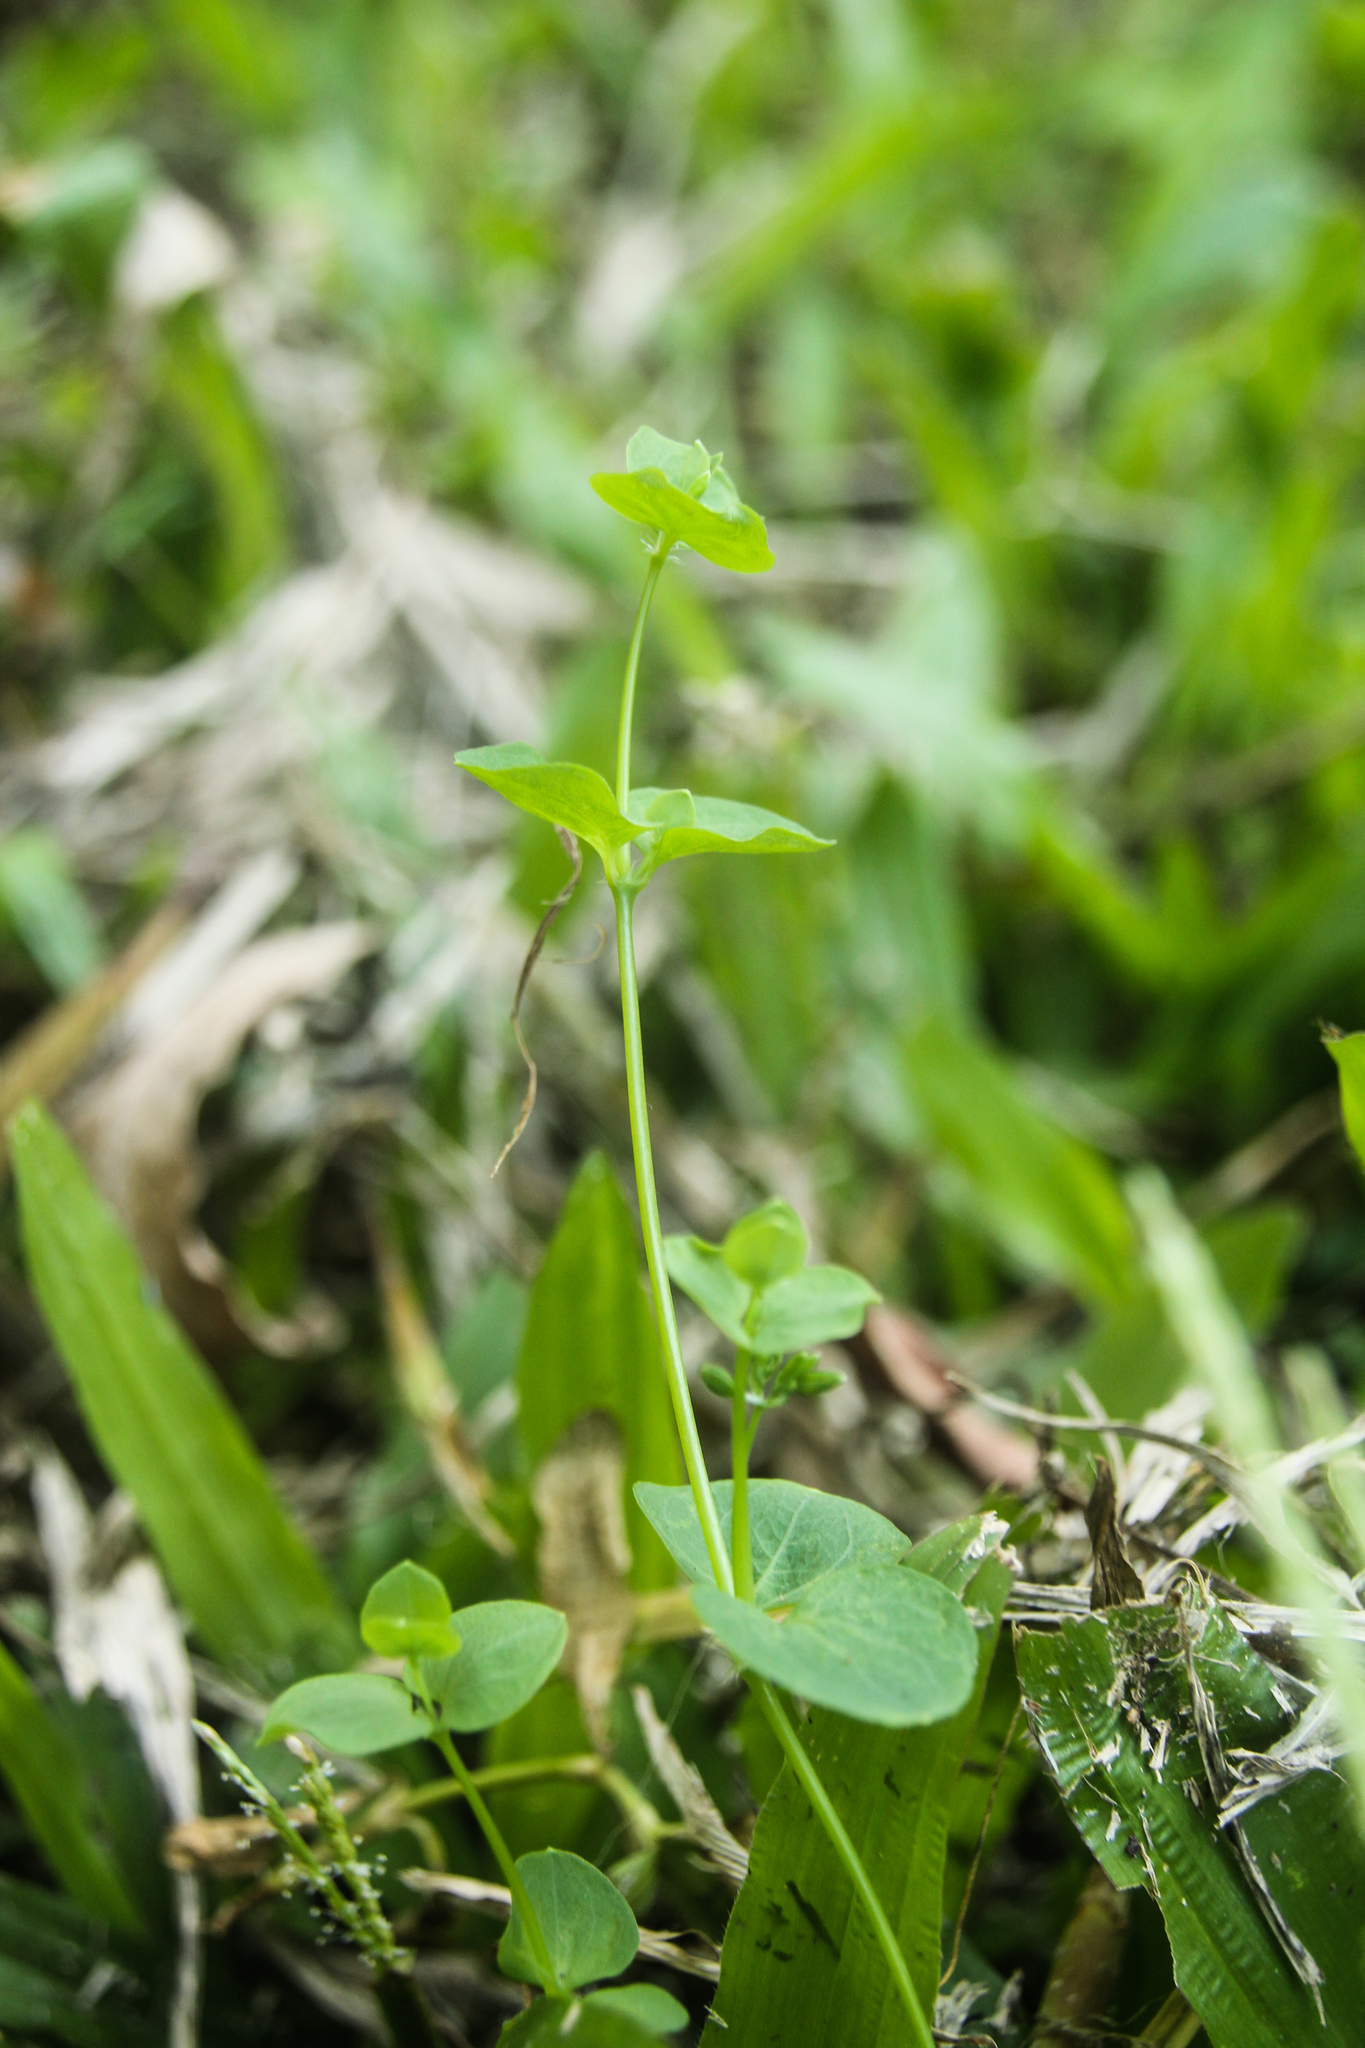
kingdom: Plantae
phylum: Tracheophyta
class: Magnoliopsida
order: Caryophyllales
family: Caryophyllaceae
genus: Drymaria
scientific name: Drymaria cordata
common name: Whitesnow
